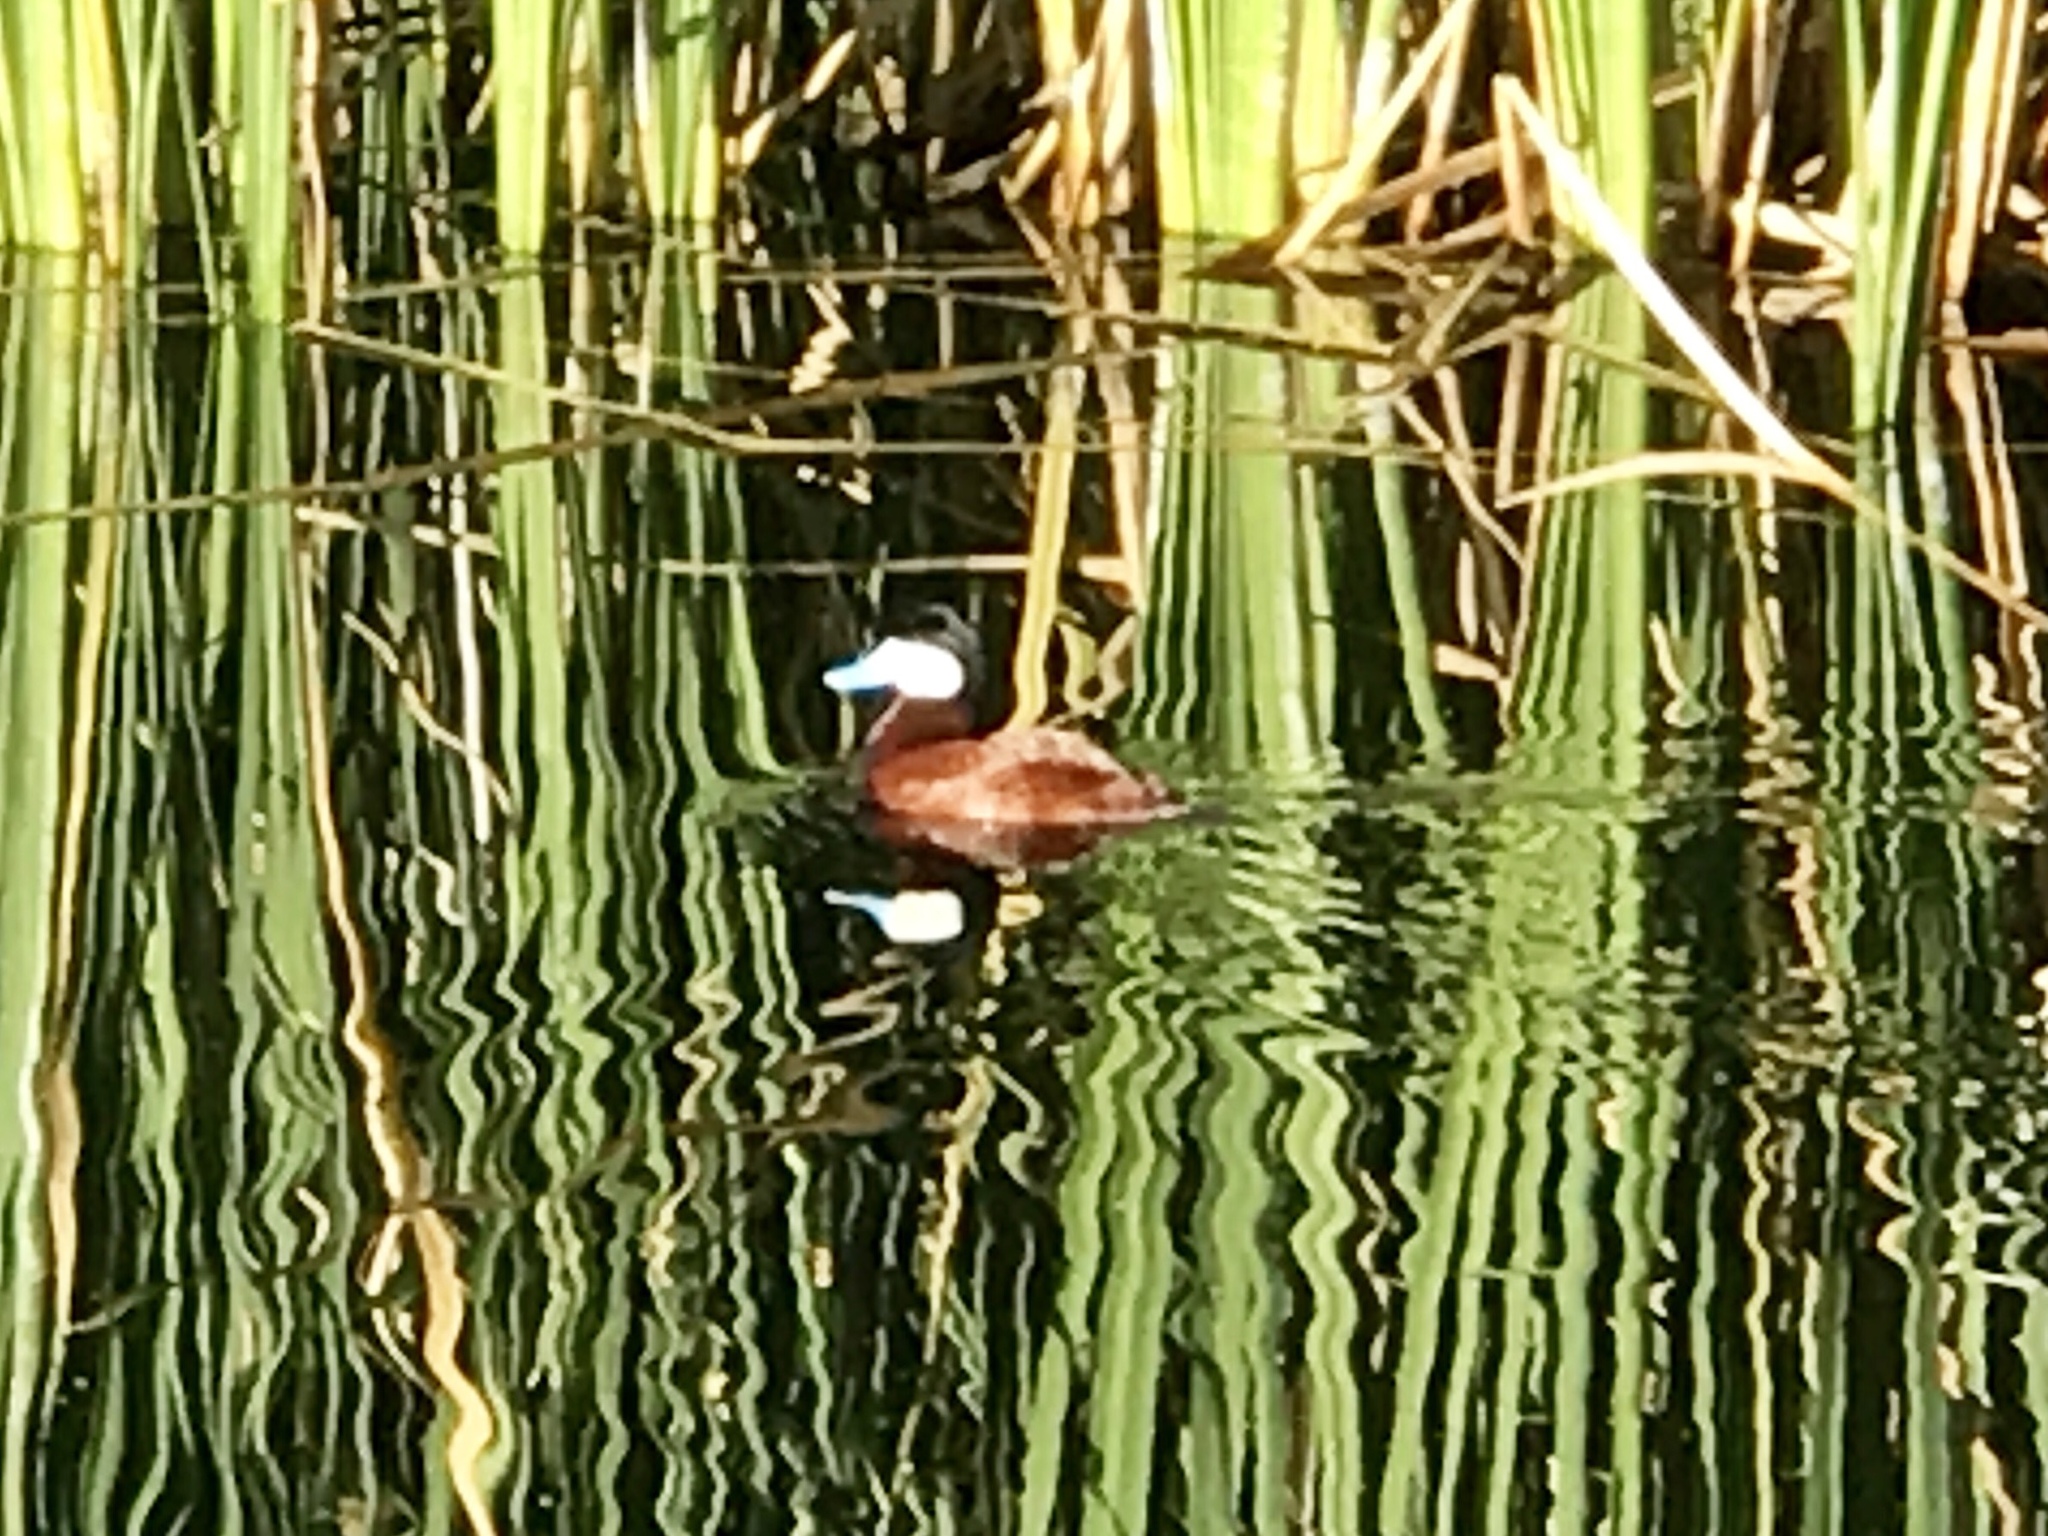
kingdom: Animalia
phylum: Chordata
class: Aves
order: Anseriformes
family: Anatidae
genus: Oxyura
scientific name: Oxyura jamaicensis
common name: Ruddy duck
